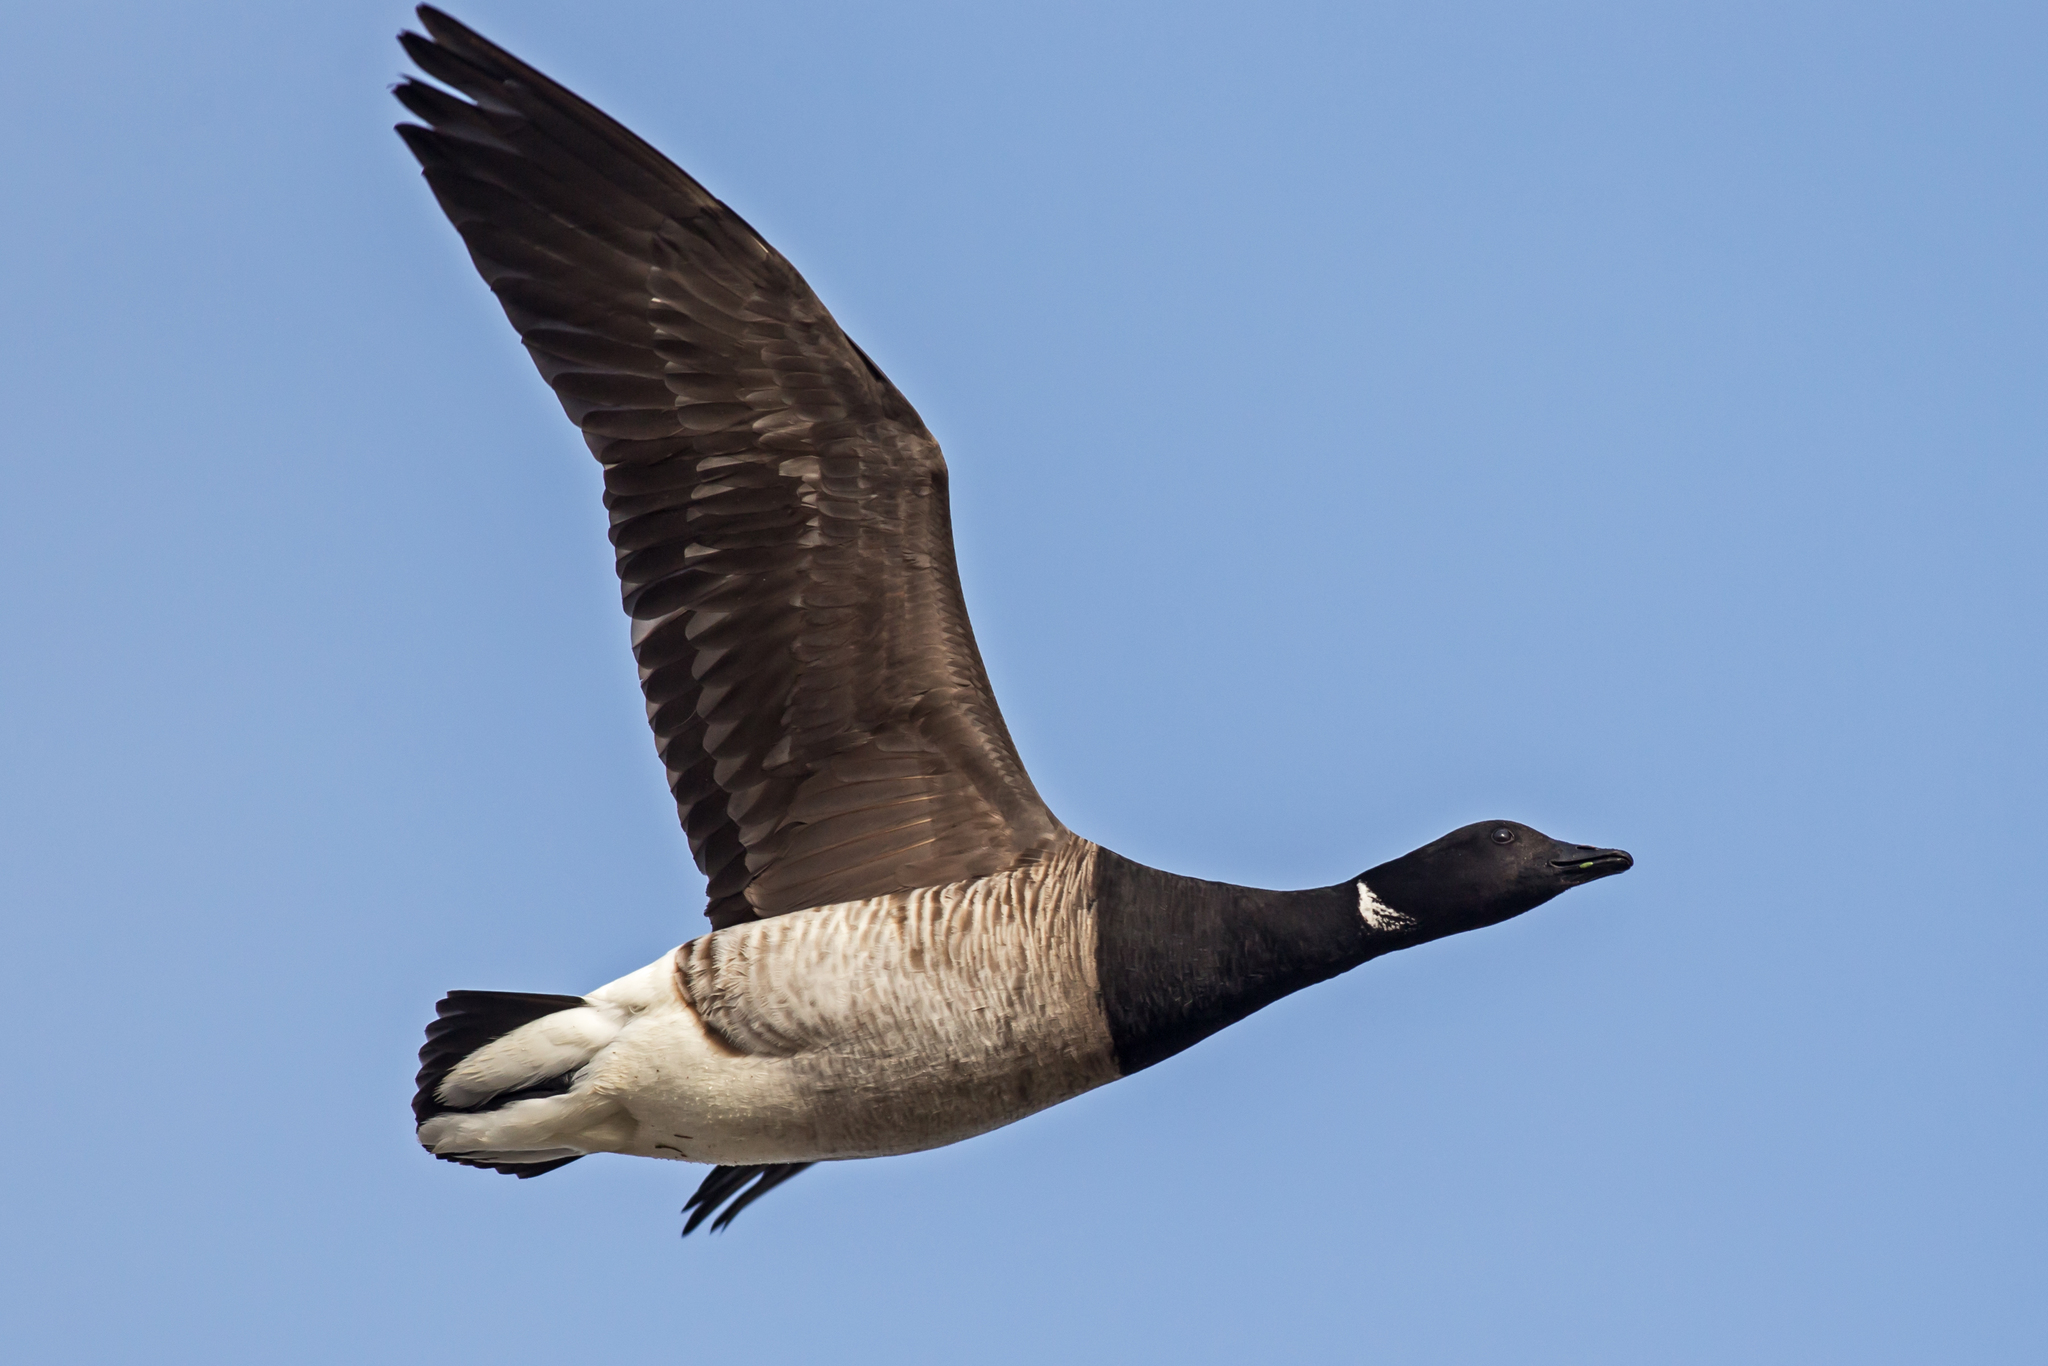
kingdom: Animalia
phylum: Chordata
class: Aves
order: Anseriformes
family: Anatidae
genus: Branta
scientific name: Branta bernicla
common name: Brant goose
